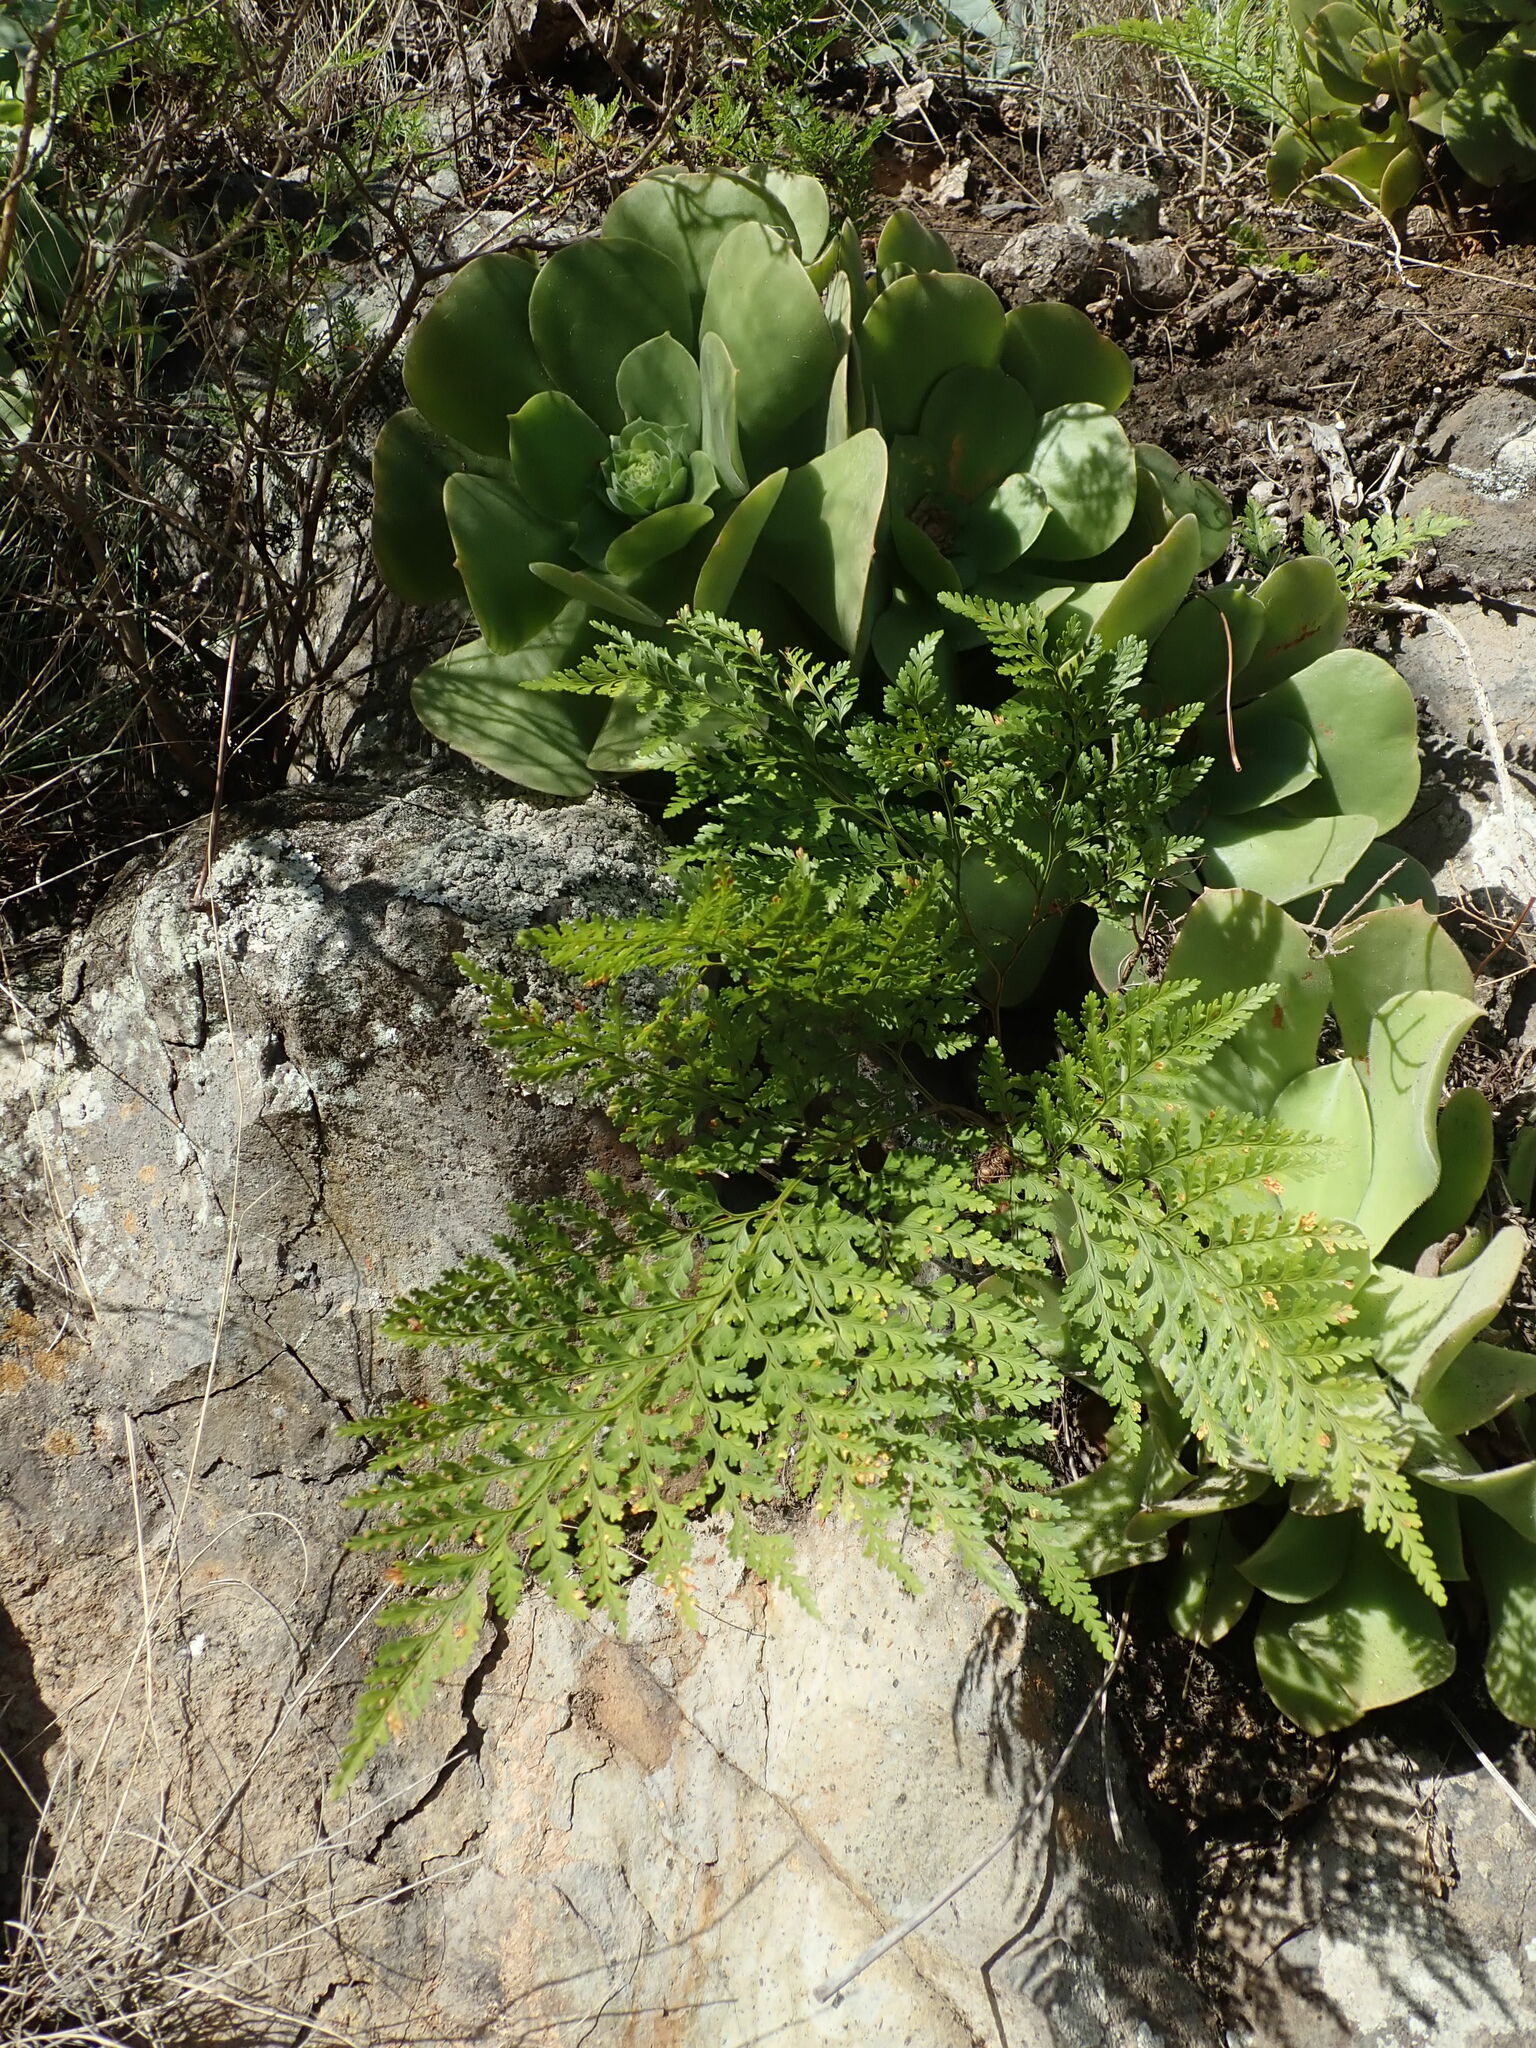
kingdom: Plantae
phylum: Tracheophyta
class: Polypodiopsida
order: Polypodiales
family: Davalliaceae
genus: Davallia
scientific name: Davallia canariensis
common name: Hare's-foot fern
